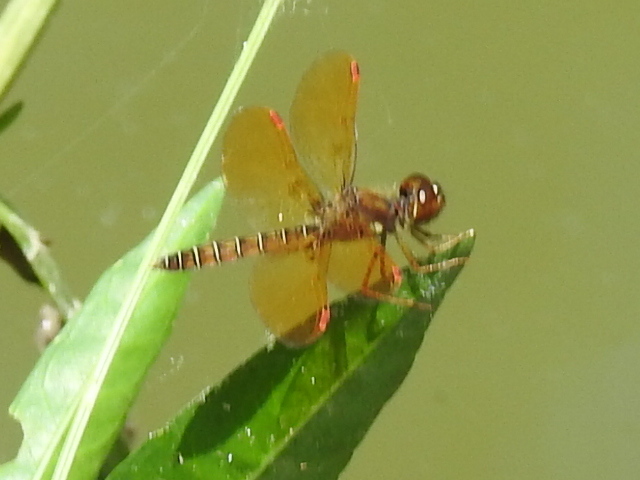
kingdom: Animalia
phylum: Arthropoda
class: Insecta
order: Odonata
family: Libellulidae
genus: Perithemis
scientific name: Perithemis tenera
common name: Eastern amberwing
